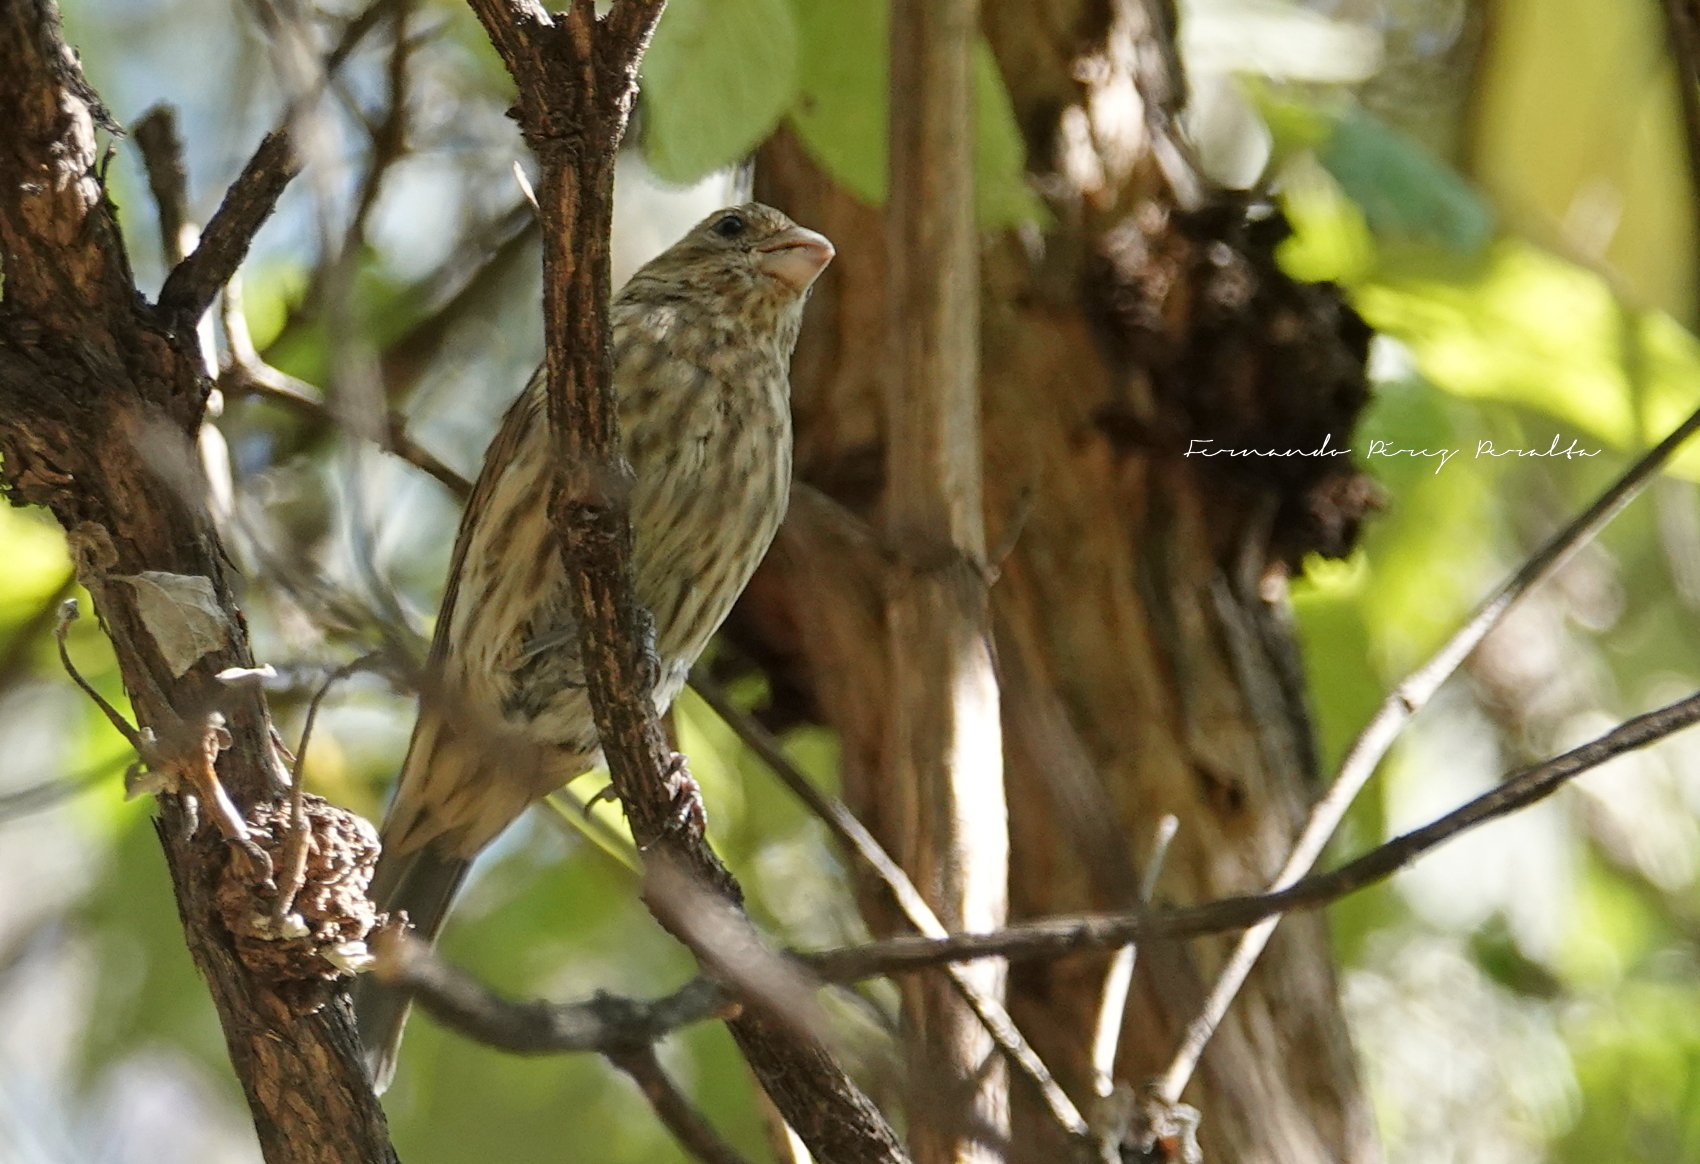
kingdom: Animalia
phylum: Chordata
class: Aves
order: Passeriformes
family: Fringillidae
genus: Haemorhous
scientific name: Haemorhous mexicanus
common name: House finch
